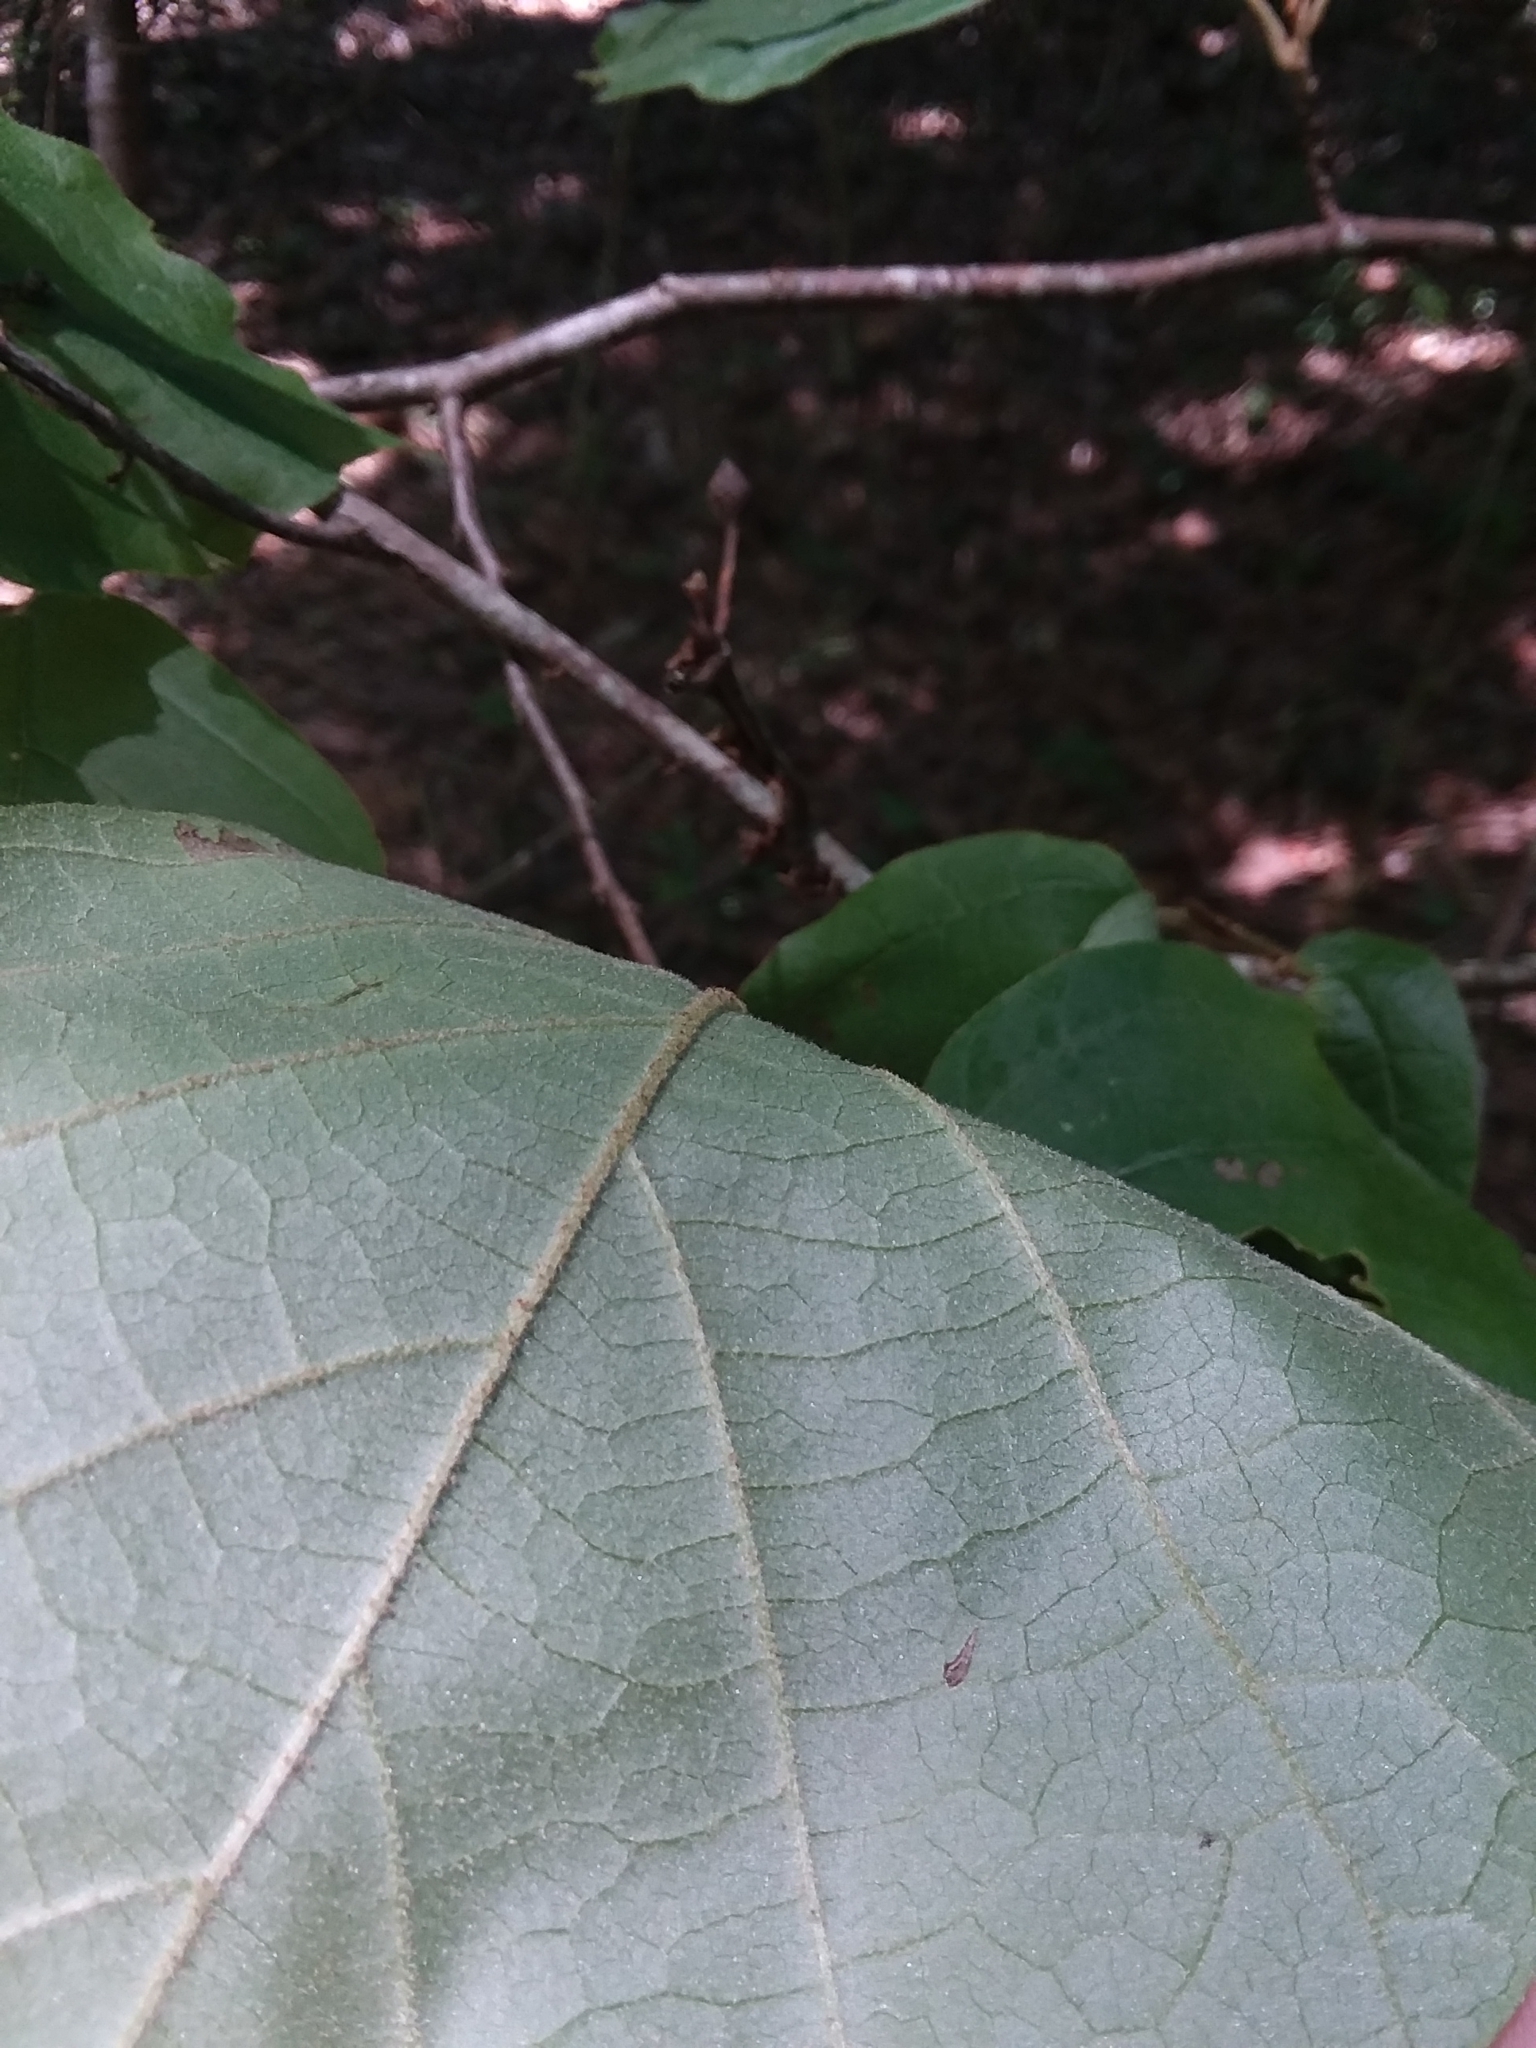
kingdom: Plantae
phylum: Tracheophyta
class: Magnoliopsida
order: Saxifragales
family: Hamamelidaceae
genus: Hamamelis
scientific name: Hamamelis virginiana
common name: Witch-hazel
